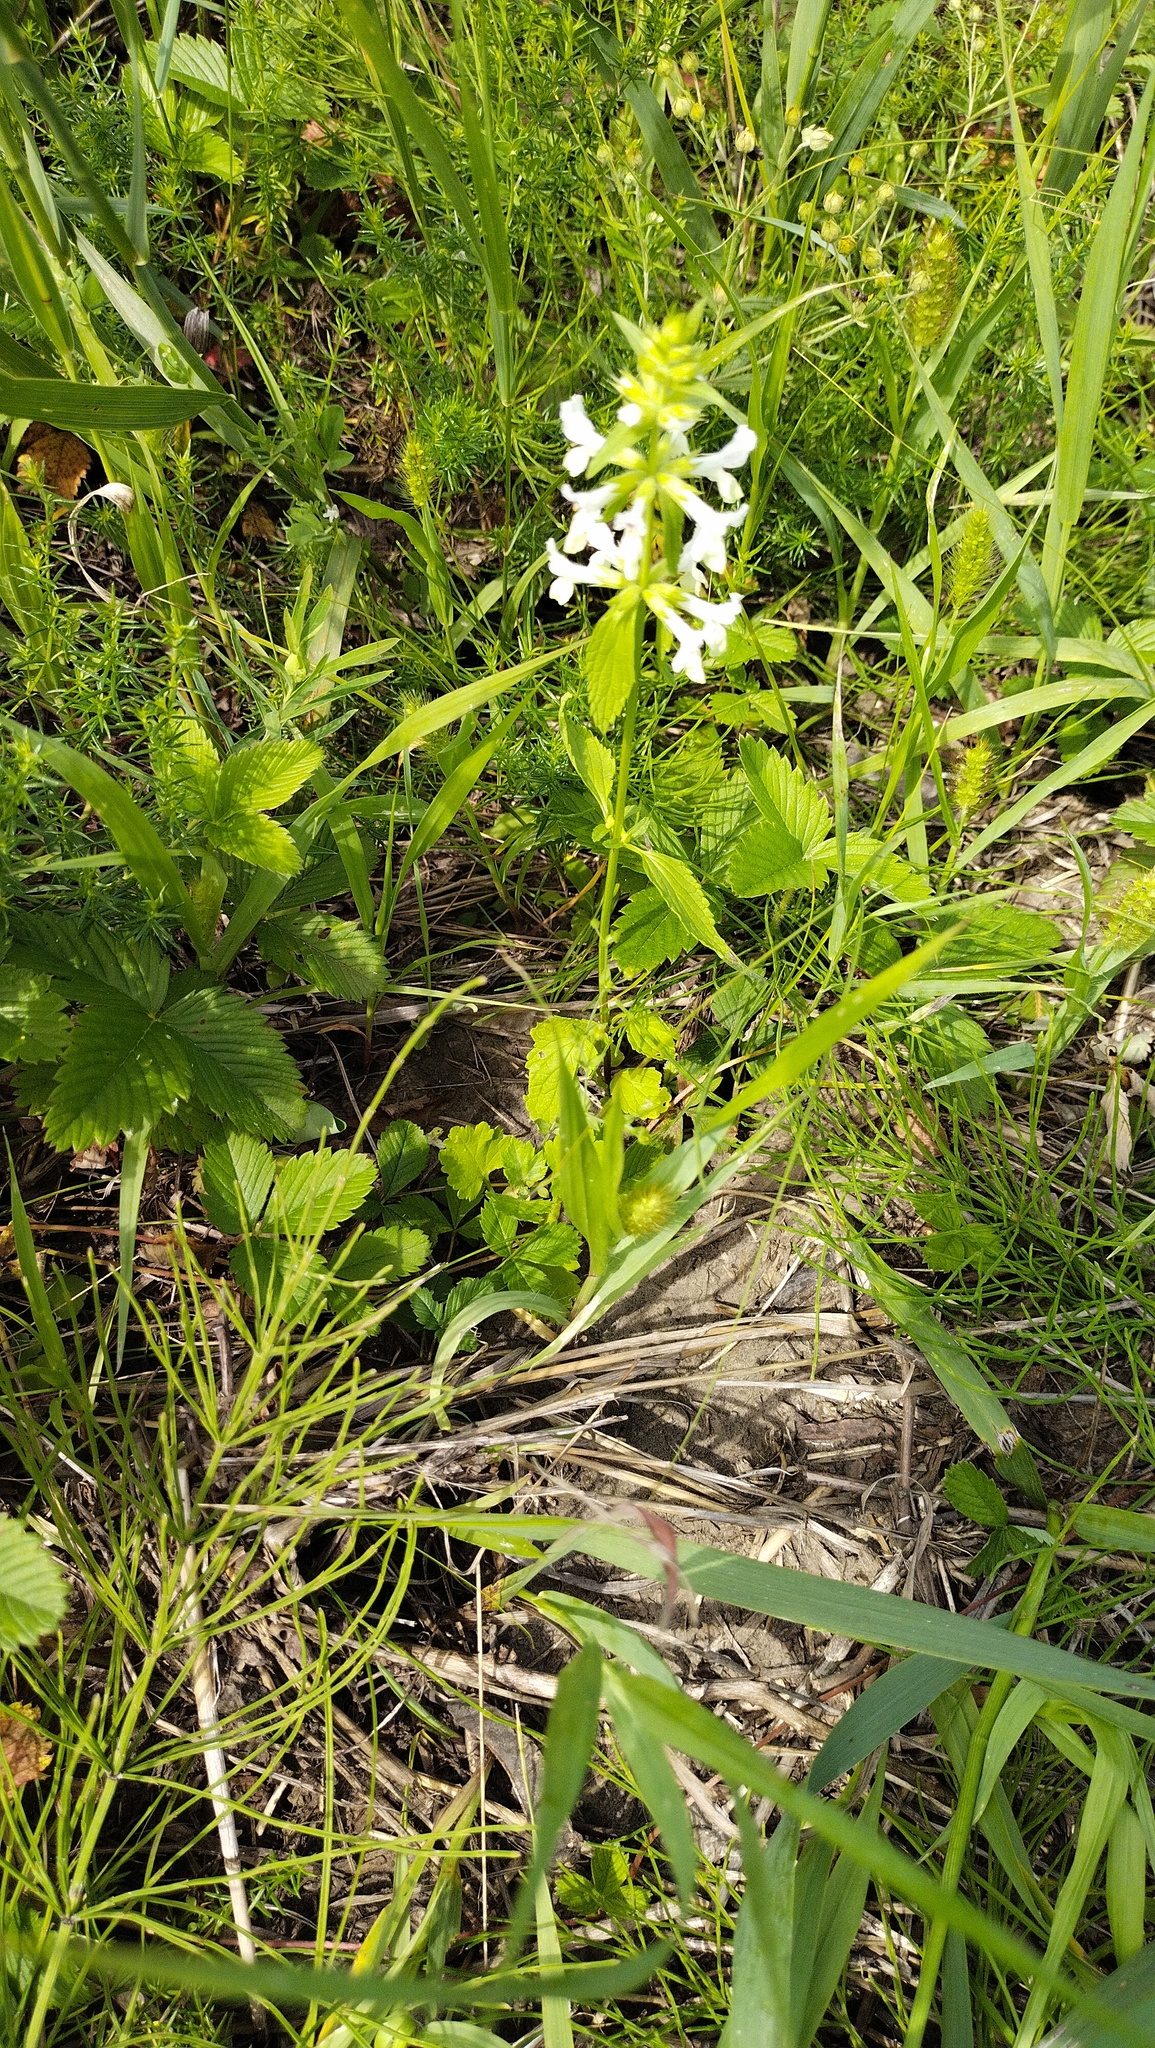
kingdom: Plantae
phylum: Tracheophyta
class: Magnoliopsida
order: Lamiales
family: Lamiaceae
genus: Stachys
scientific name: Stachys recta
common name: Perennial yellow-woundwort
